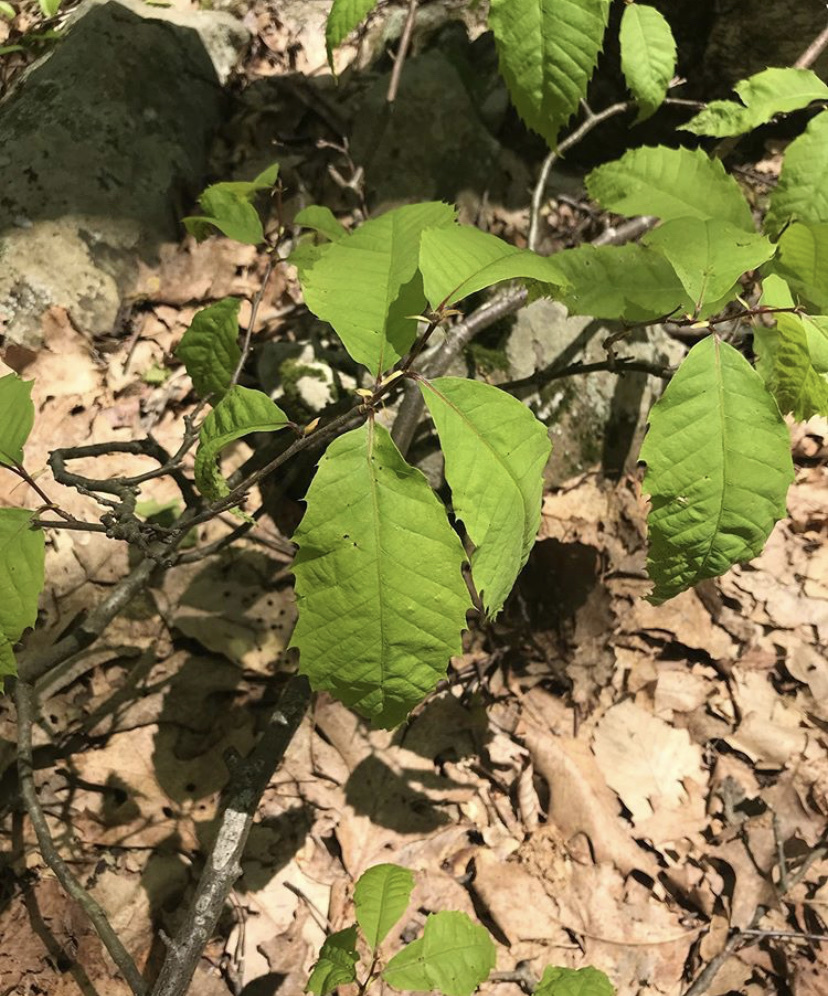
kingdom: Plantae
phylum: Tracheophyta
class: Magnoliopsida
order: Fagales
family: Fagaceae
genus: Castanea
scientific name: Castanea dentata
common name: American chestnut
